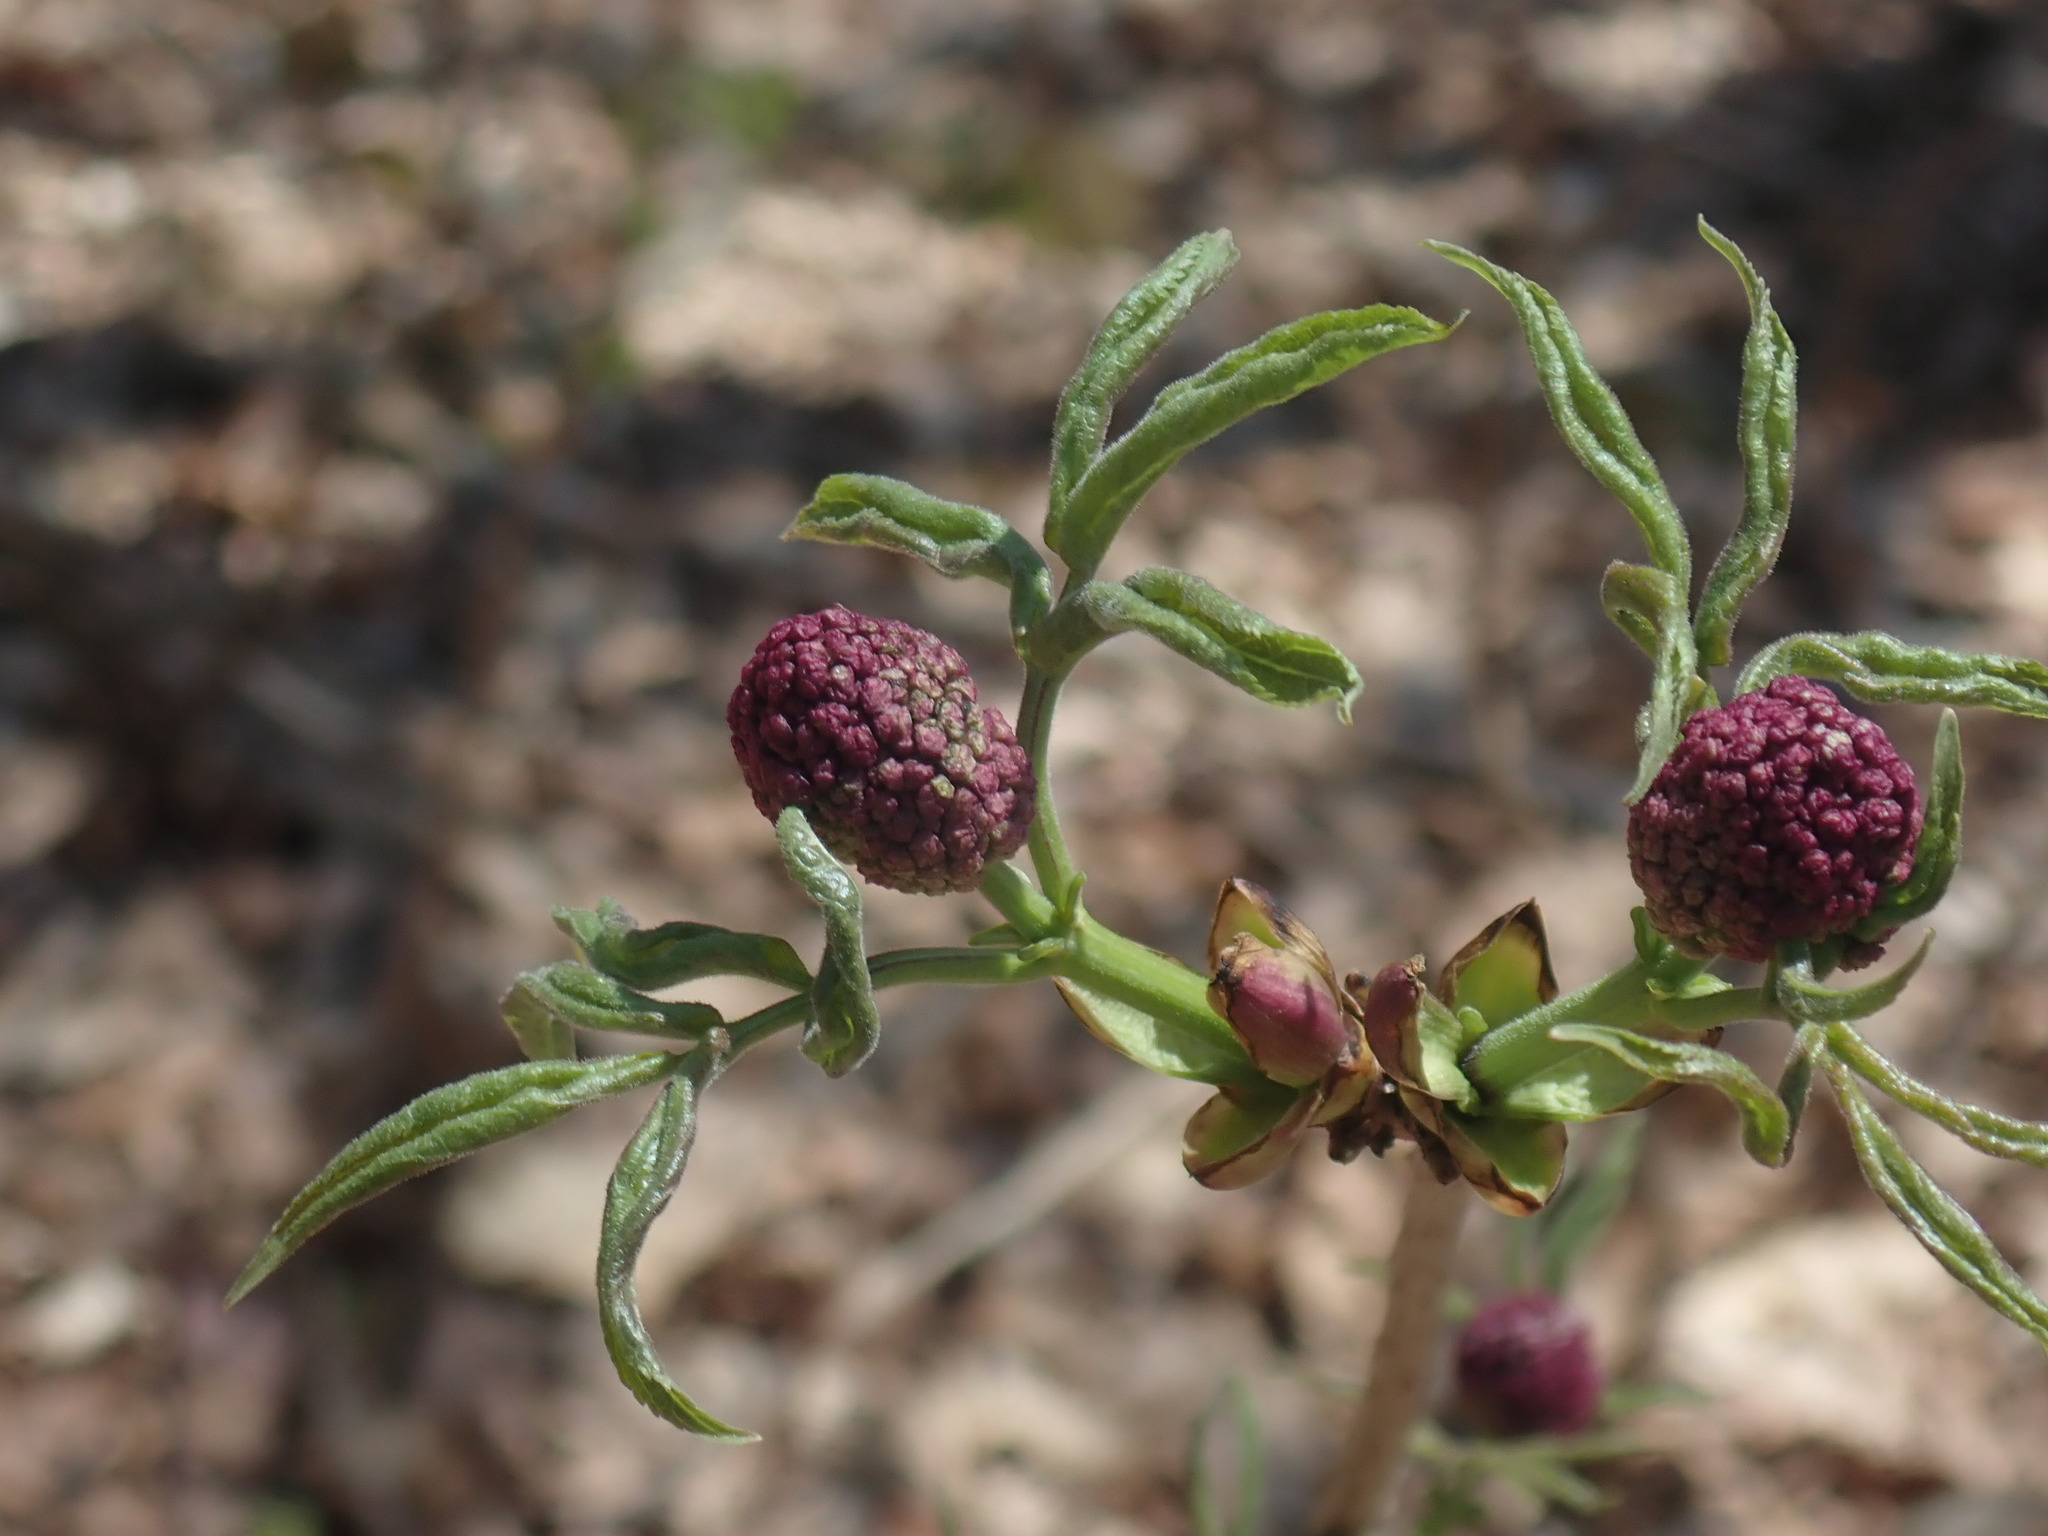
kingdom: Plantae
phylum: Tracheophyta
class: Magnoliopsida
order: Dipsacales
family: Viburnaceae
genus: Sambucus
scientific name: Sambucus racemosa
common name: Red-berried elder
